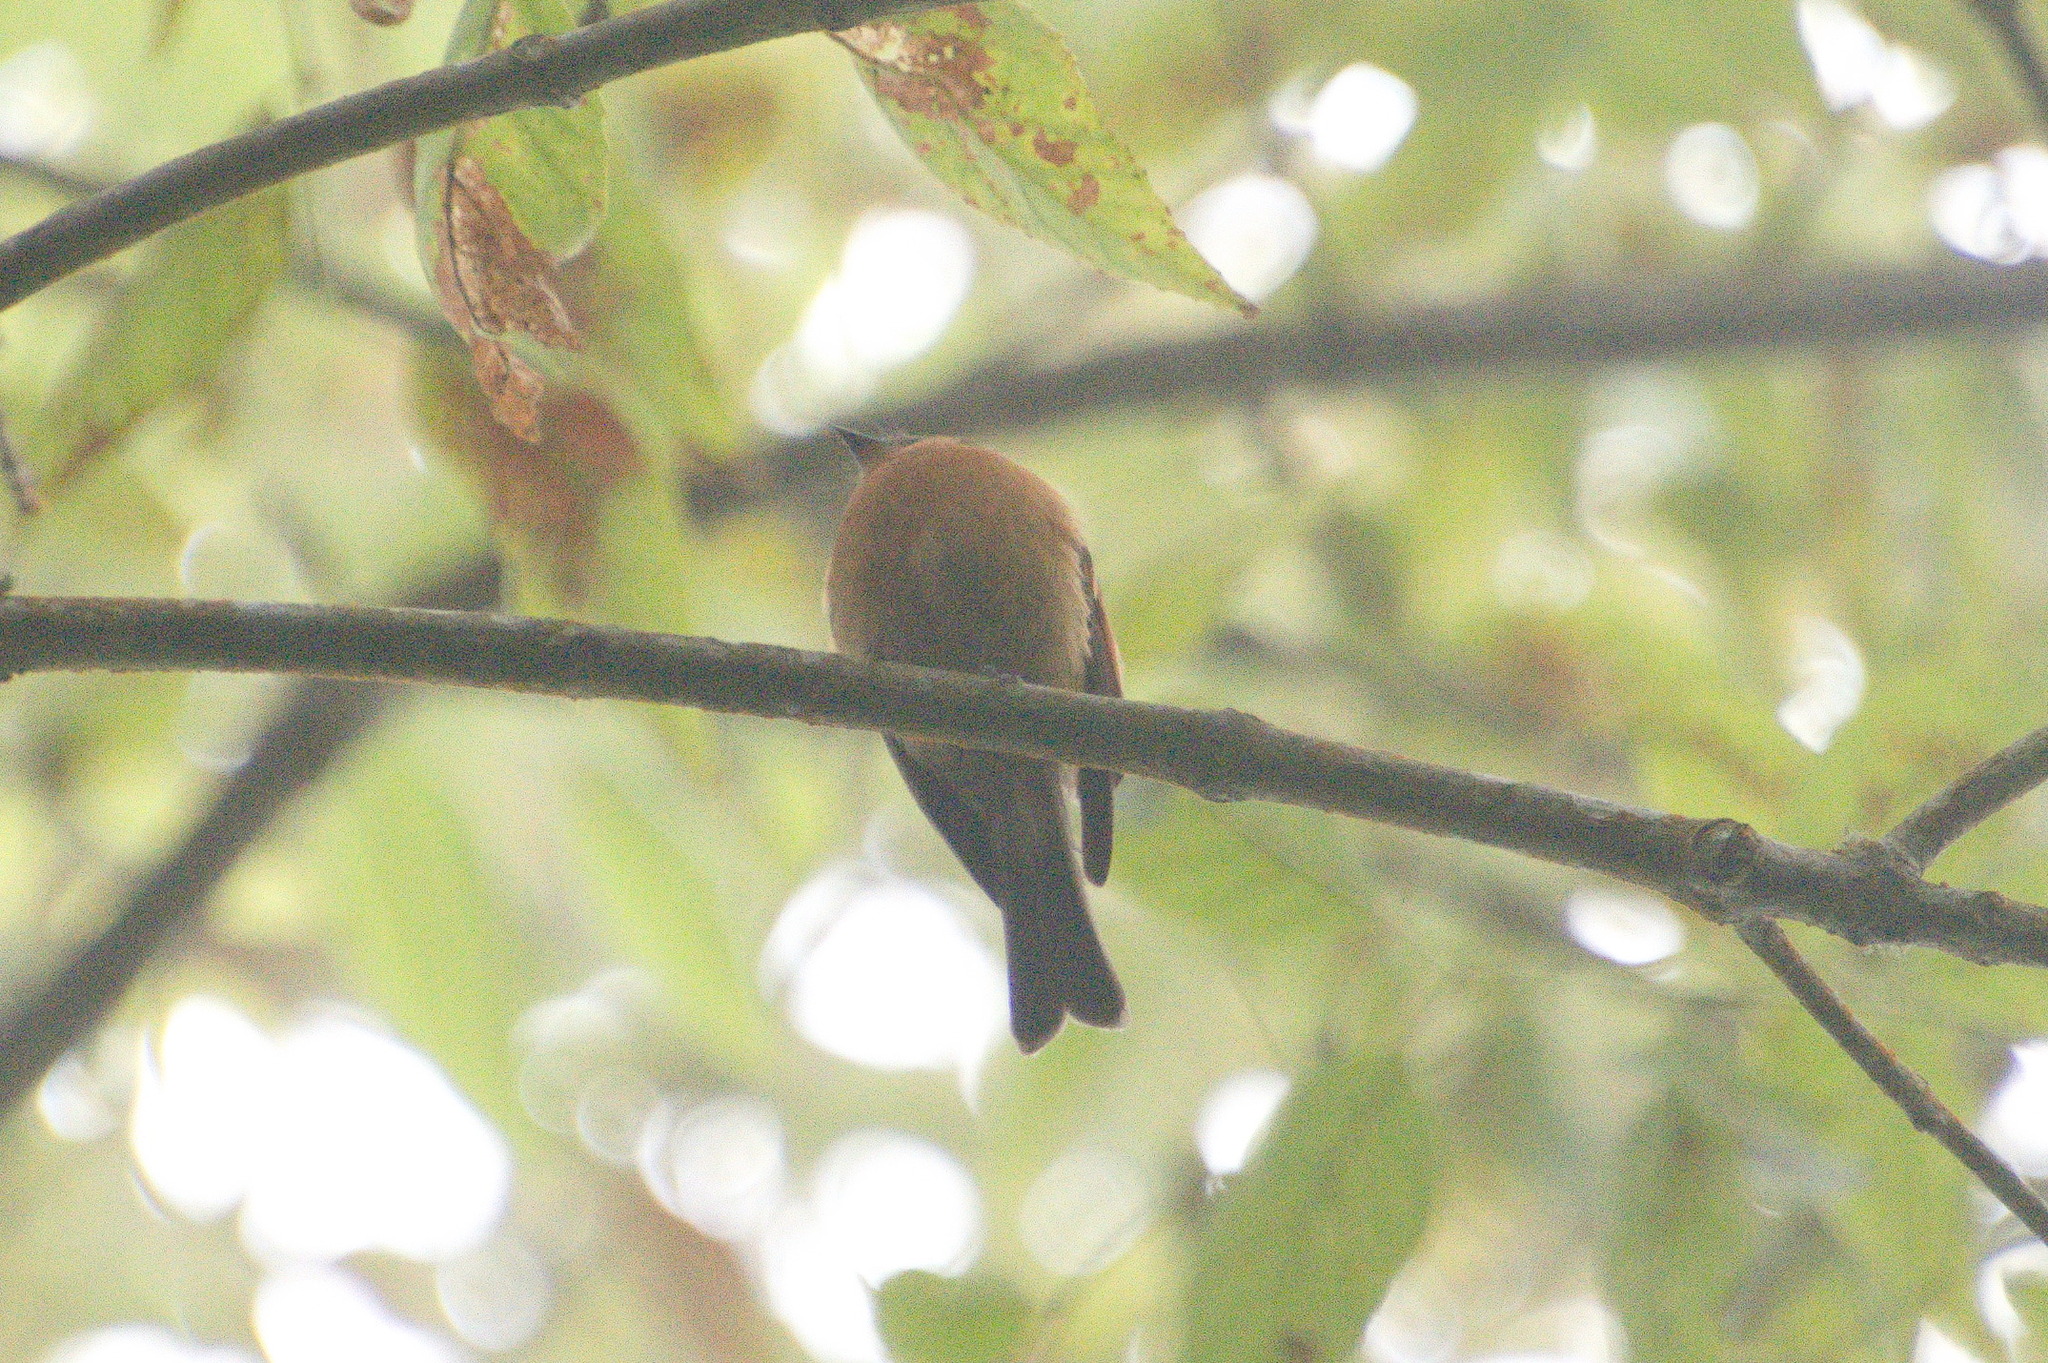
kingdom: Animalia
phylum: Chordata
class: Aves
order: Passeriformes
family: Tyrannidae
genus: Pyrrhomyias
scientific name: Pyrrhomyias cinnamomeus
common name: Cinnamon flycatcher
